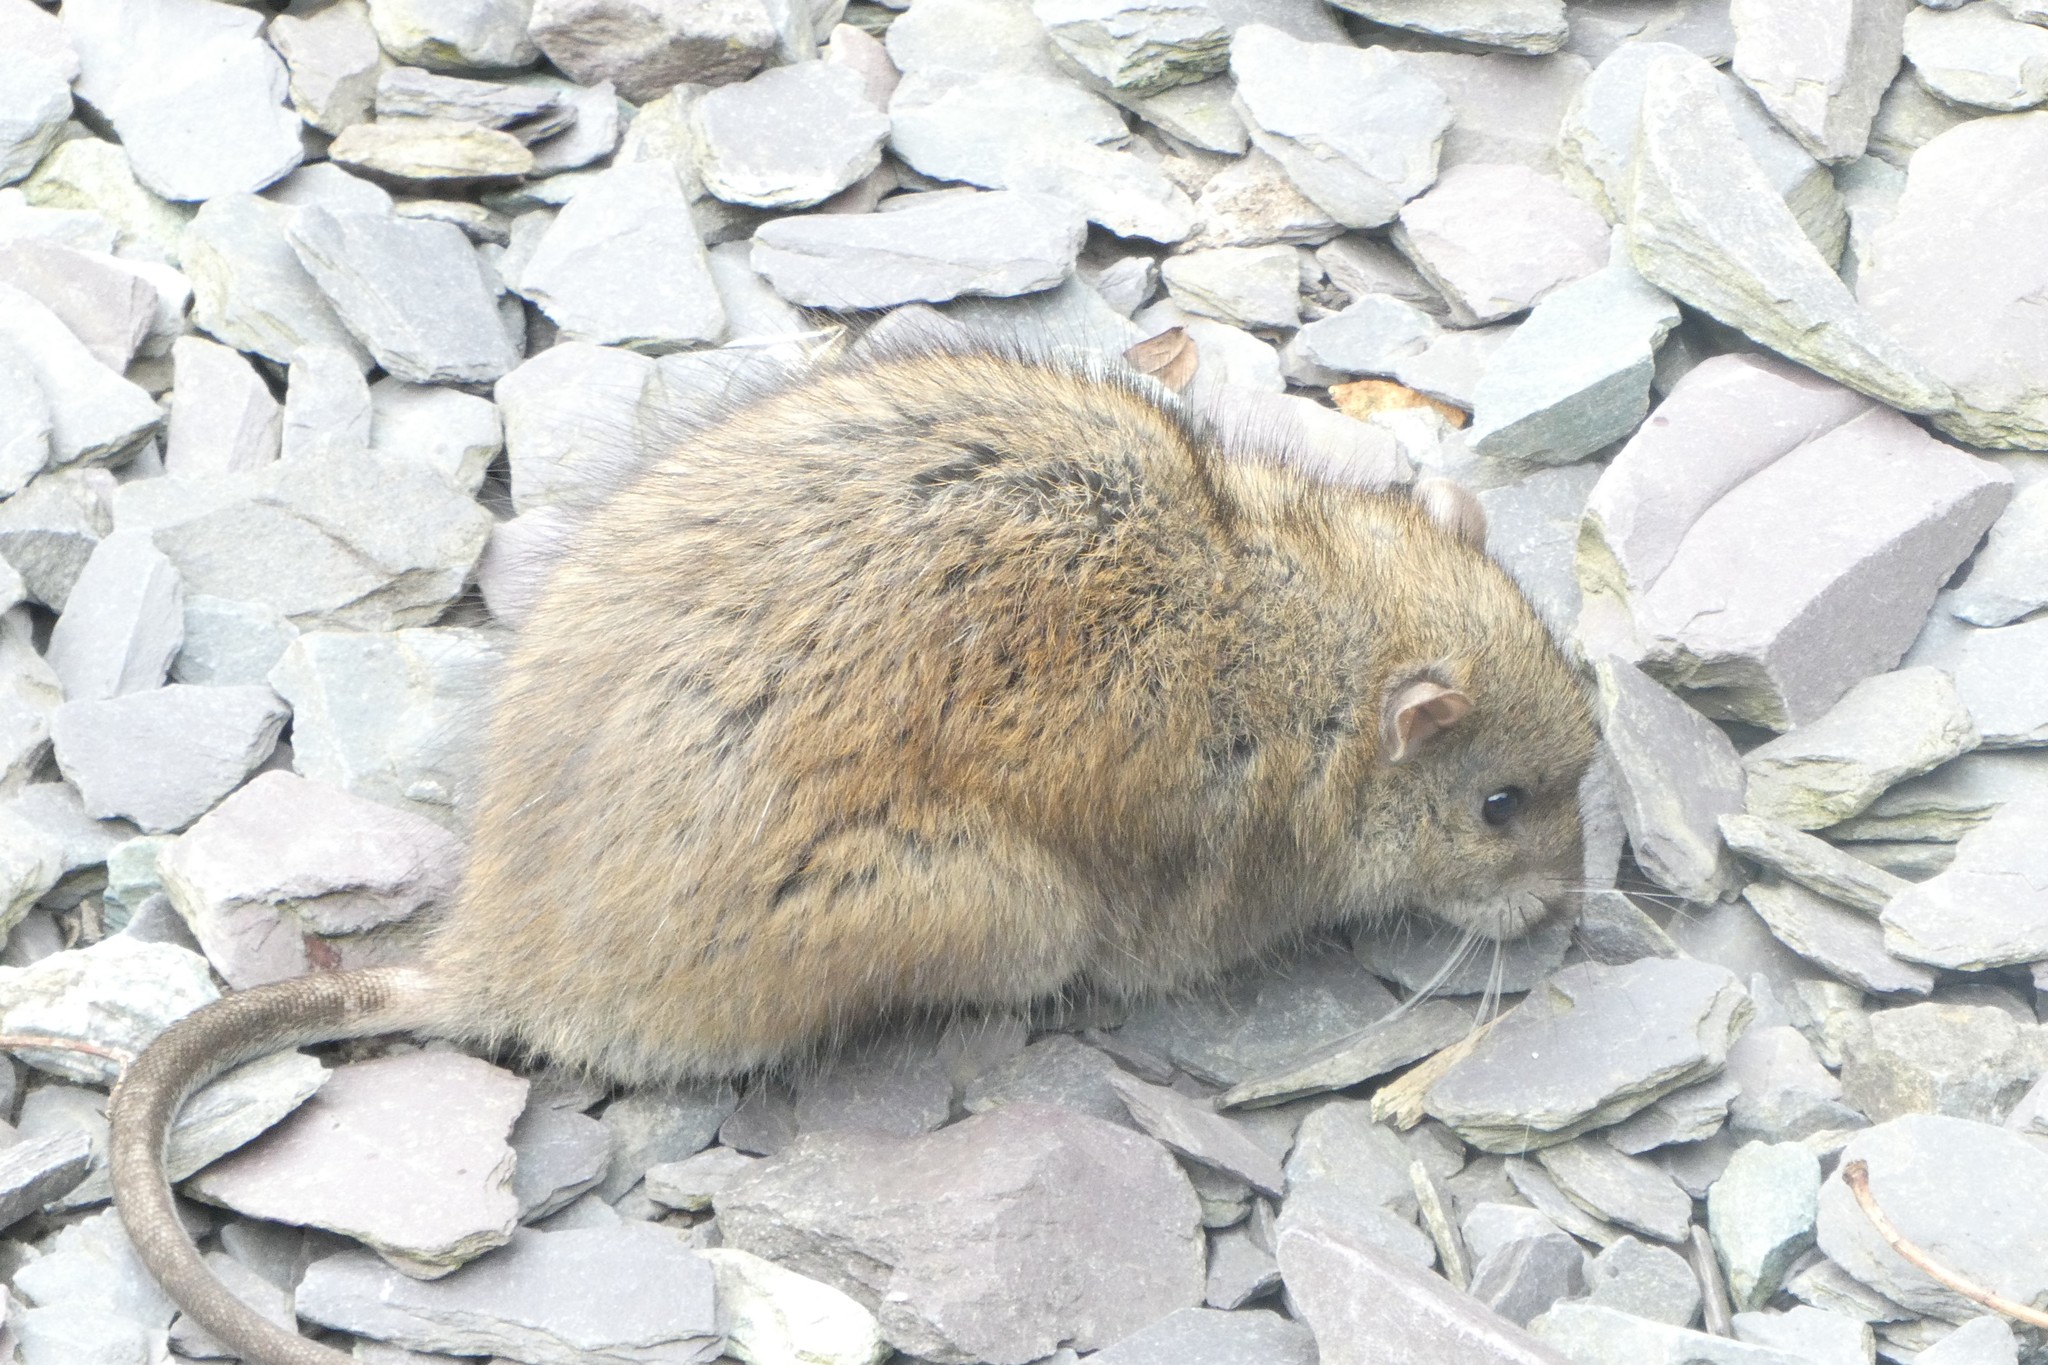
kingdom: Animalia
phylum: Chordata
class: Mammalia
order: Rodentia
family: Muridae
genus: Rattus
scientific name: Rattus norvegicus
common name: Brown rat
